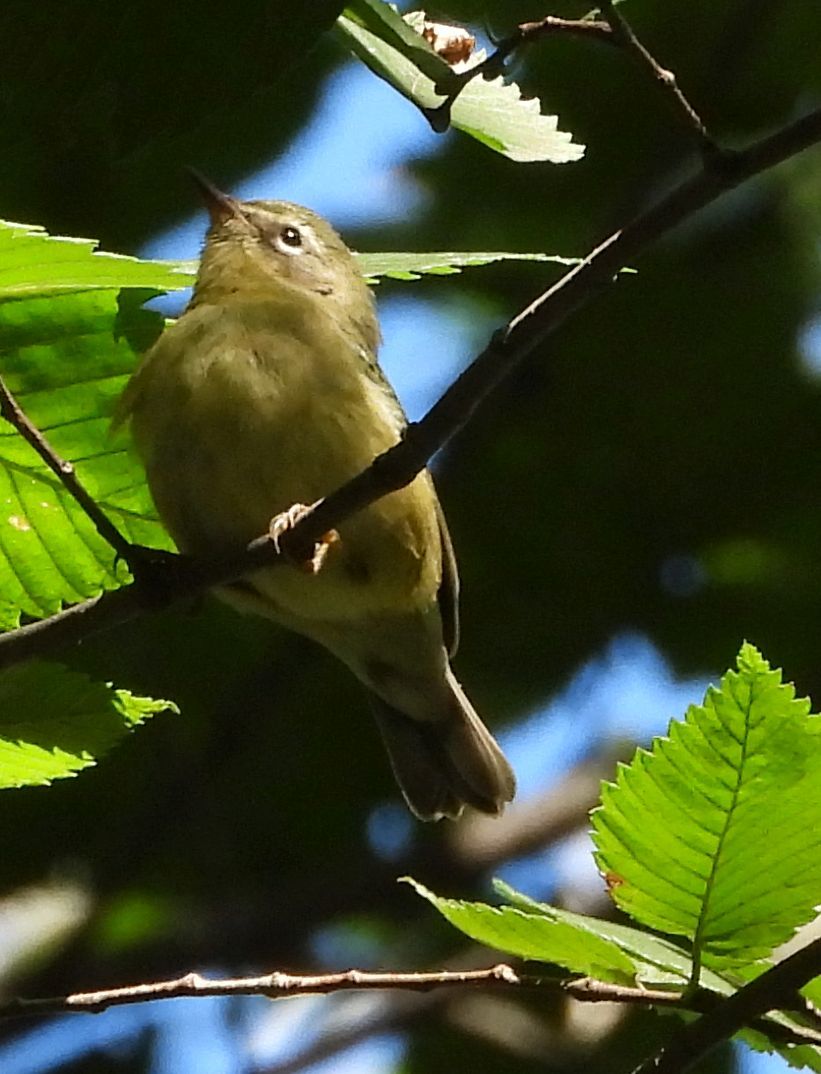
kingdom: Animalia
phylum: Chordata
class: Aves
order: Passeriformes
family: Parulidae
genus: Setophaga
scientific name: Setophaga caerulescens
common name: Black-throated blue warbler
